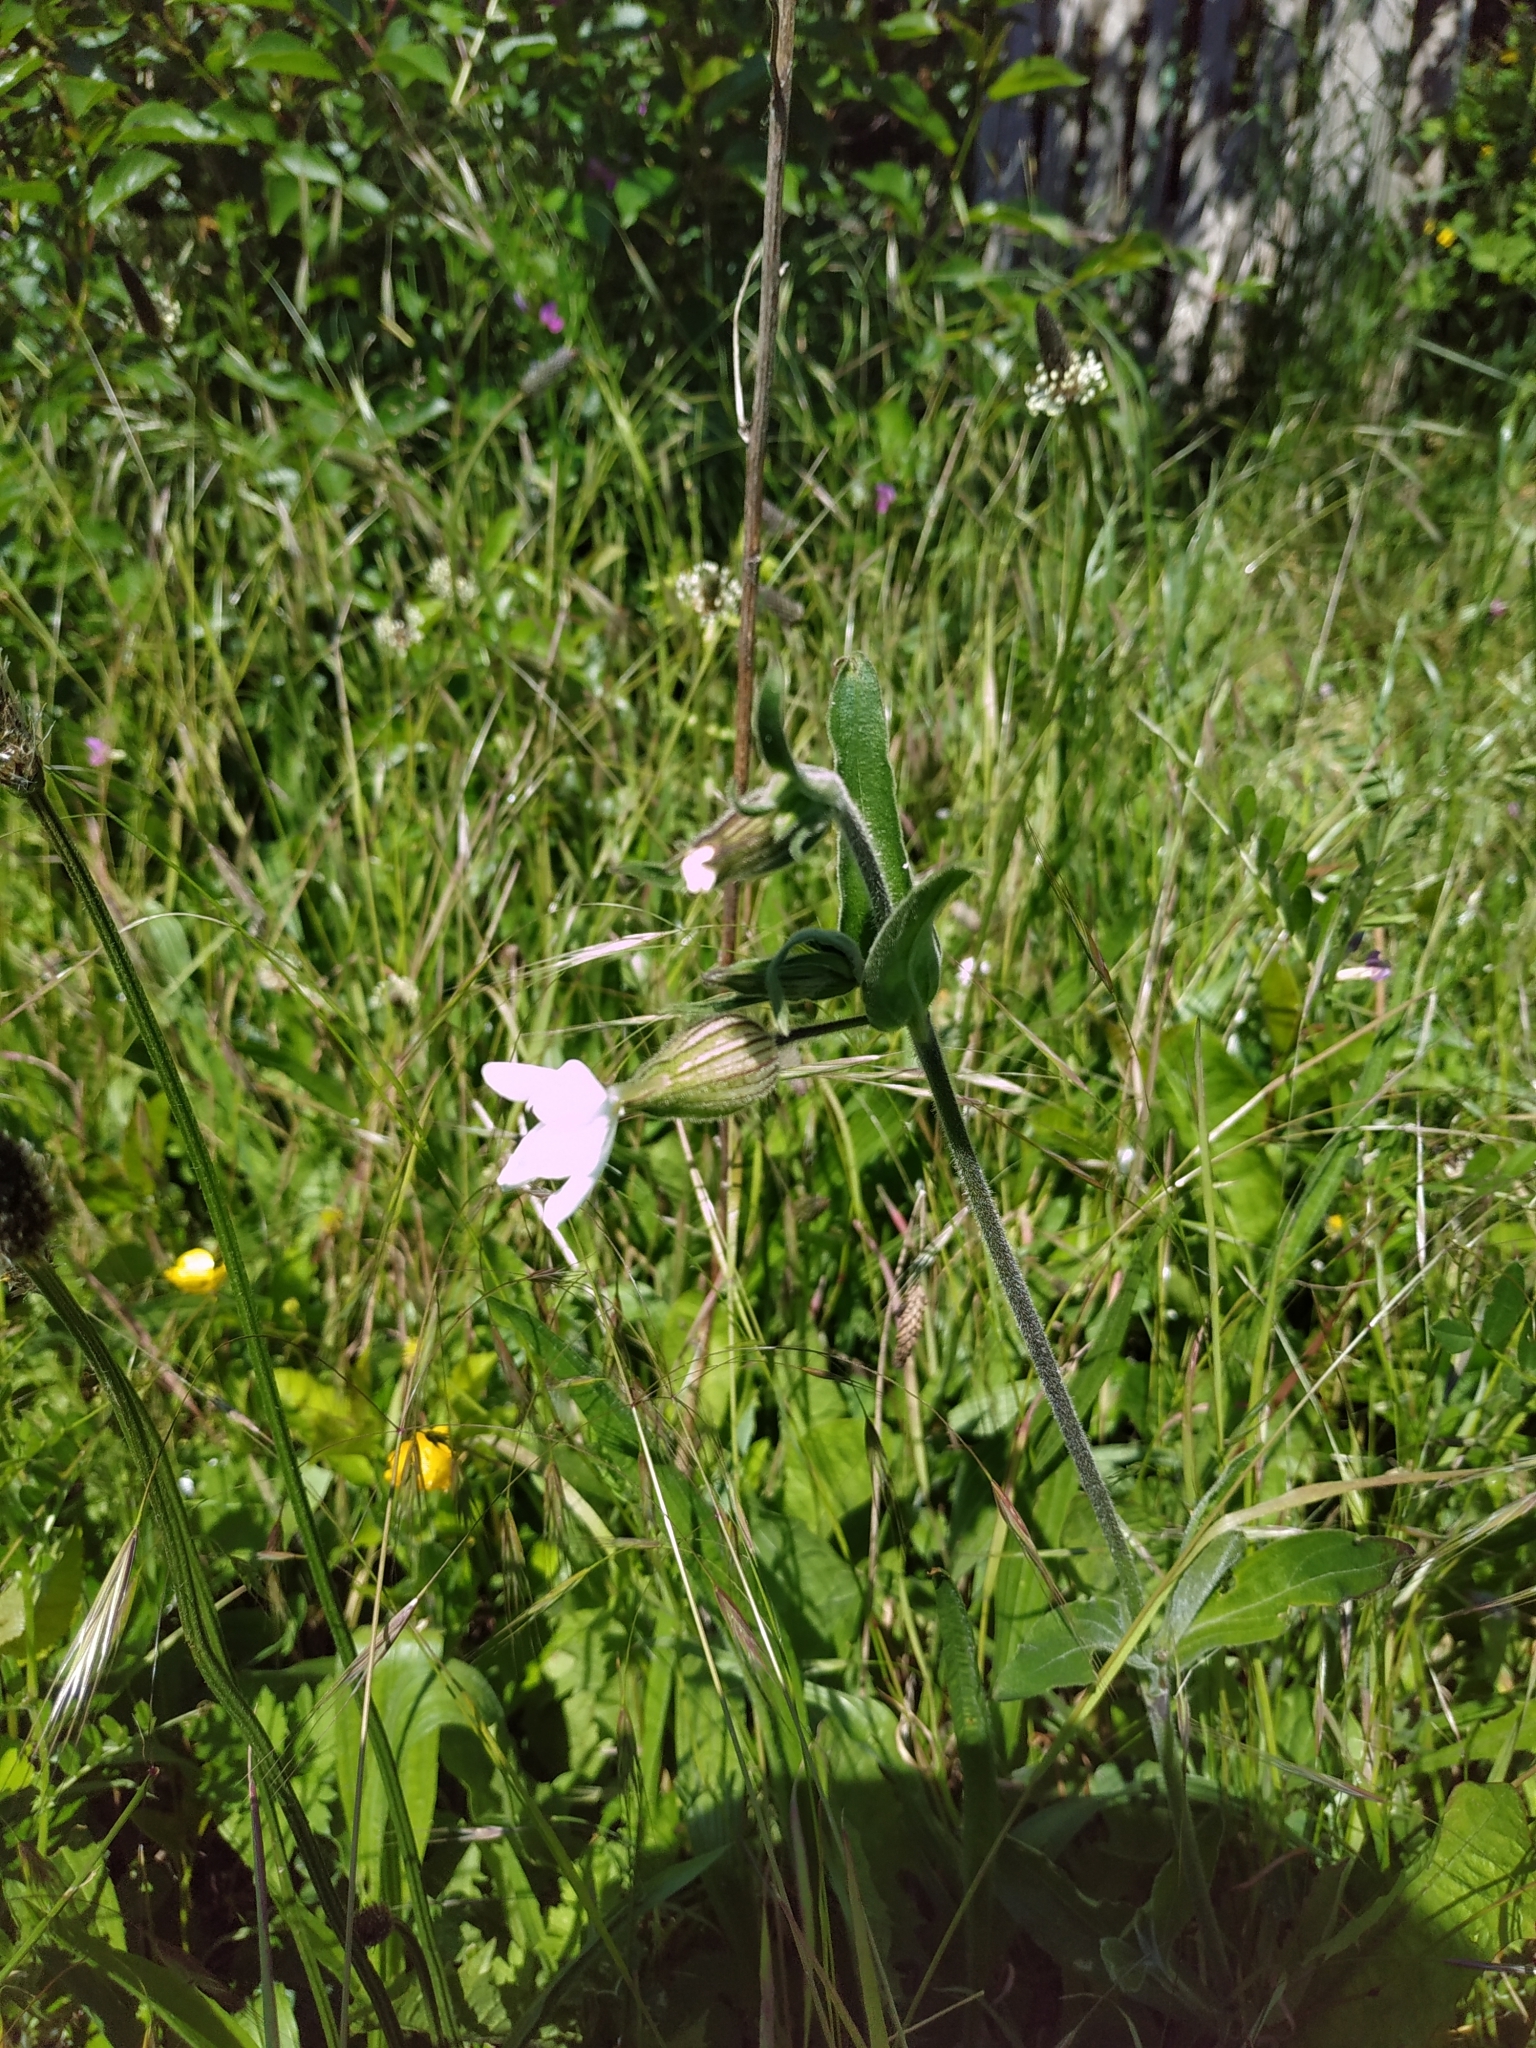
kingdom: Plantae
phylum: Tracheophyta
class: Magnoliopsida
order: Caryophyllales
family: Caryophyllaceae
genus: Silene
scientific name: Silene latifolia
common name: White campion
